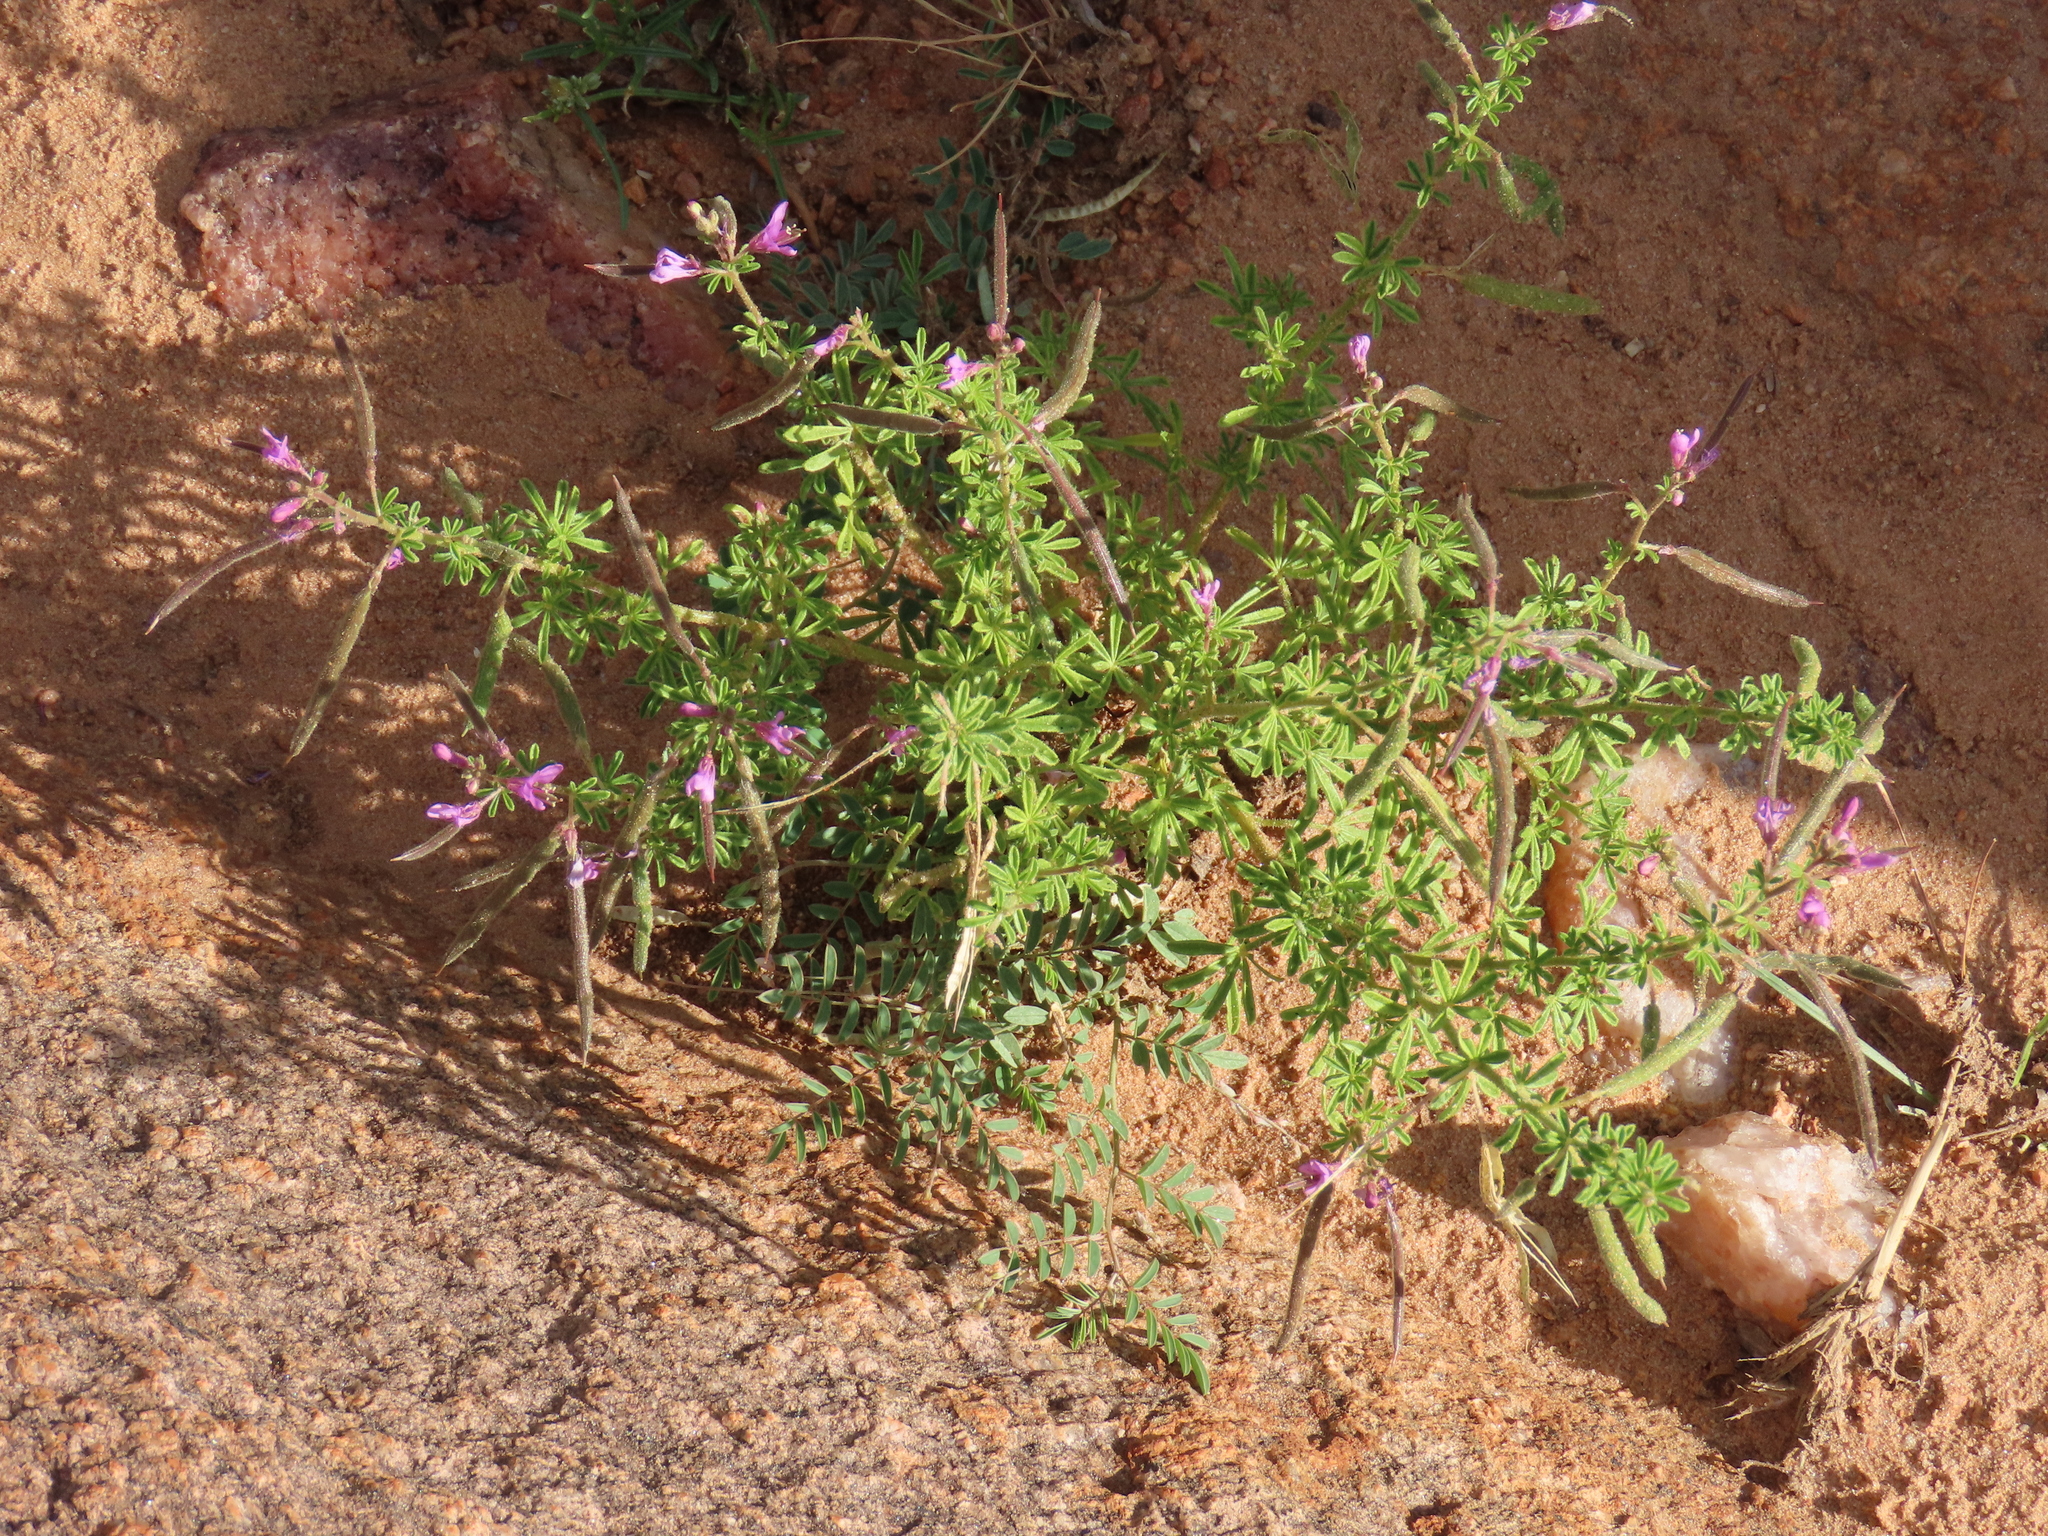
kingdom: Plantae
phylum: Tracheophyta
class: Magnoliopsida
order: Brassicales
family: Cleomaceae
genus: Sieruela
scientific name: Sieruela rubella
